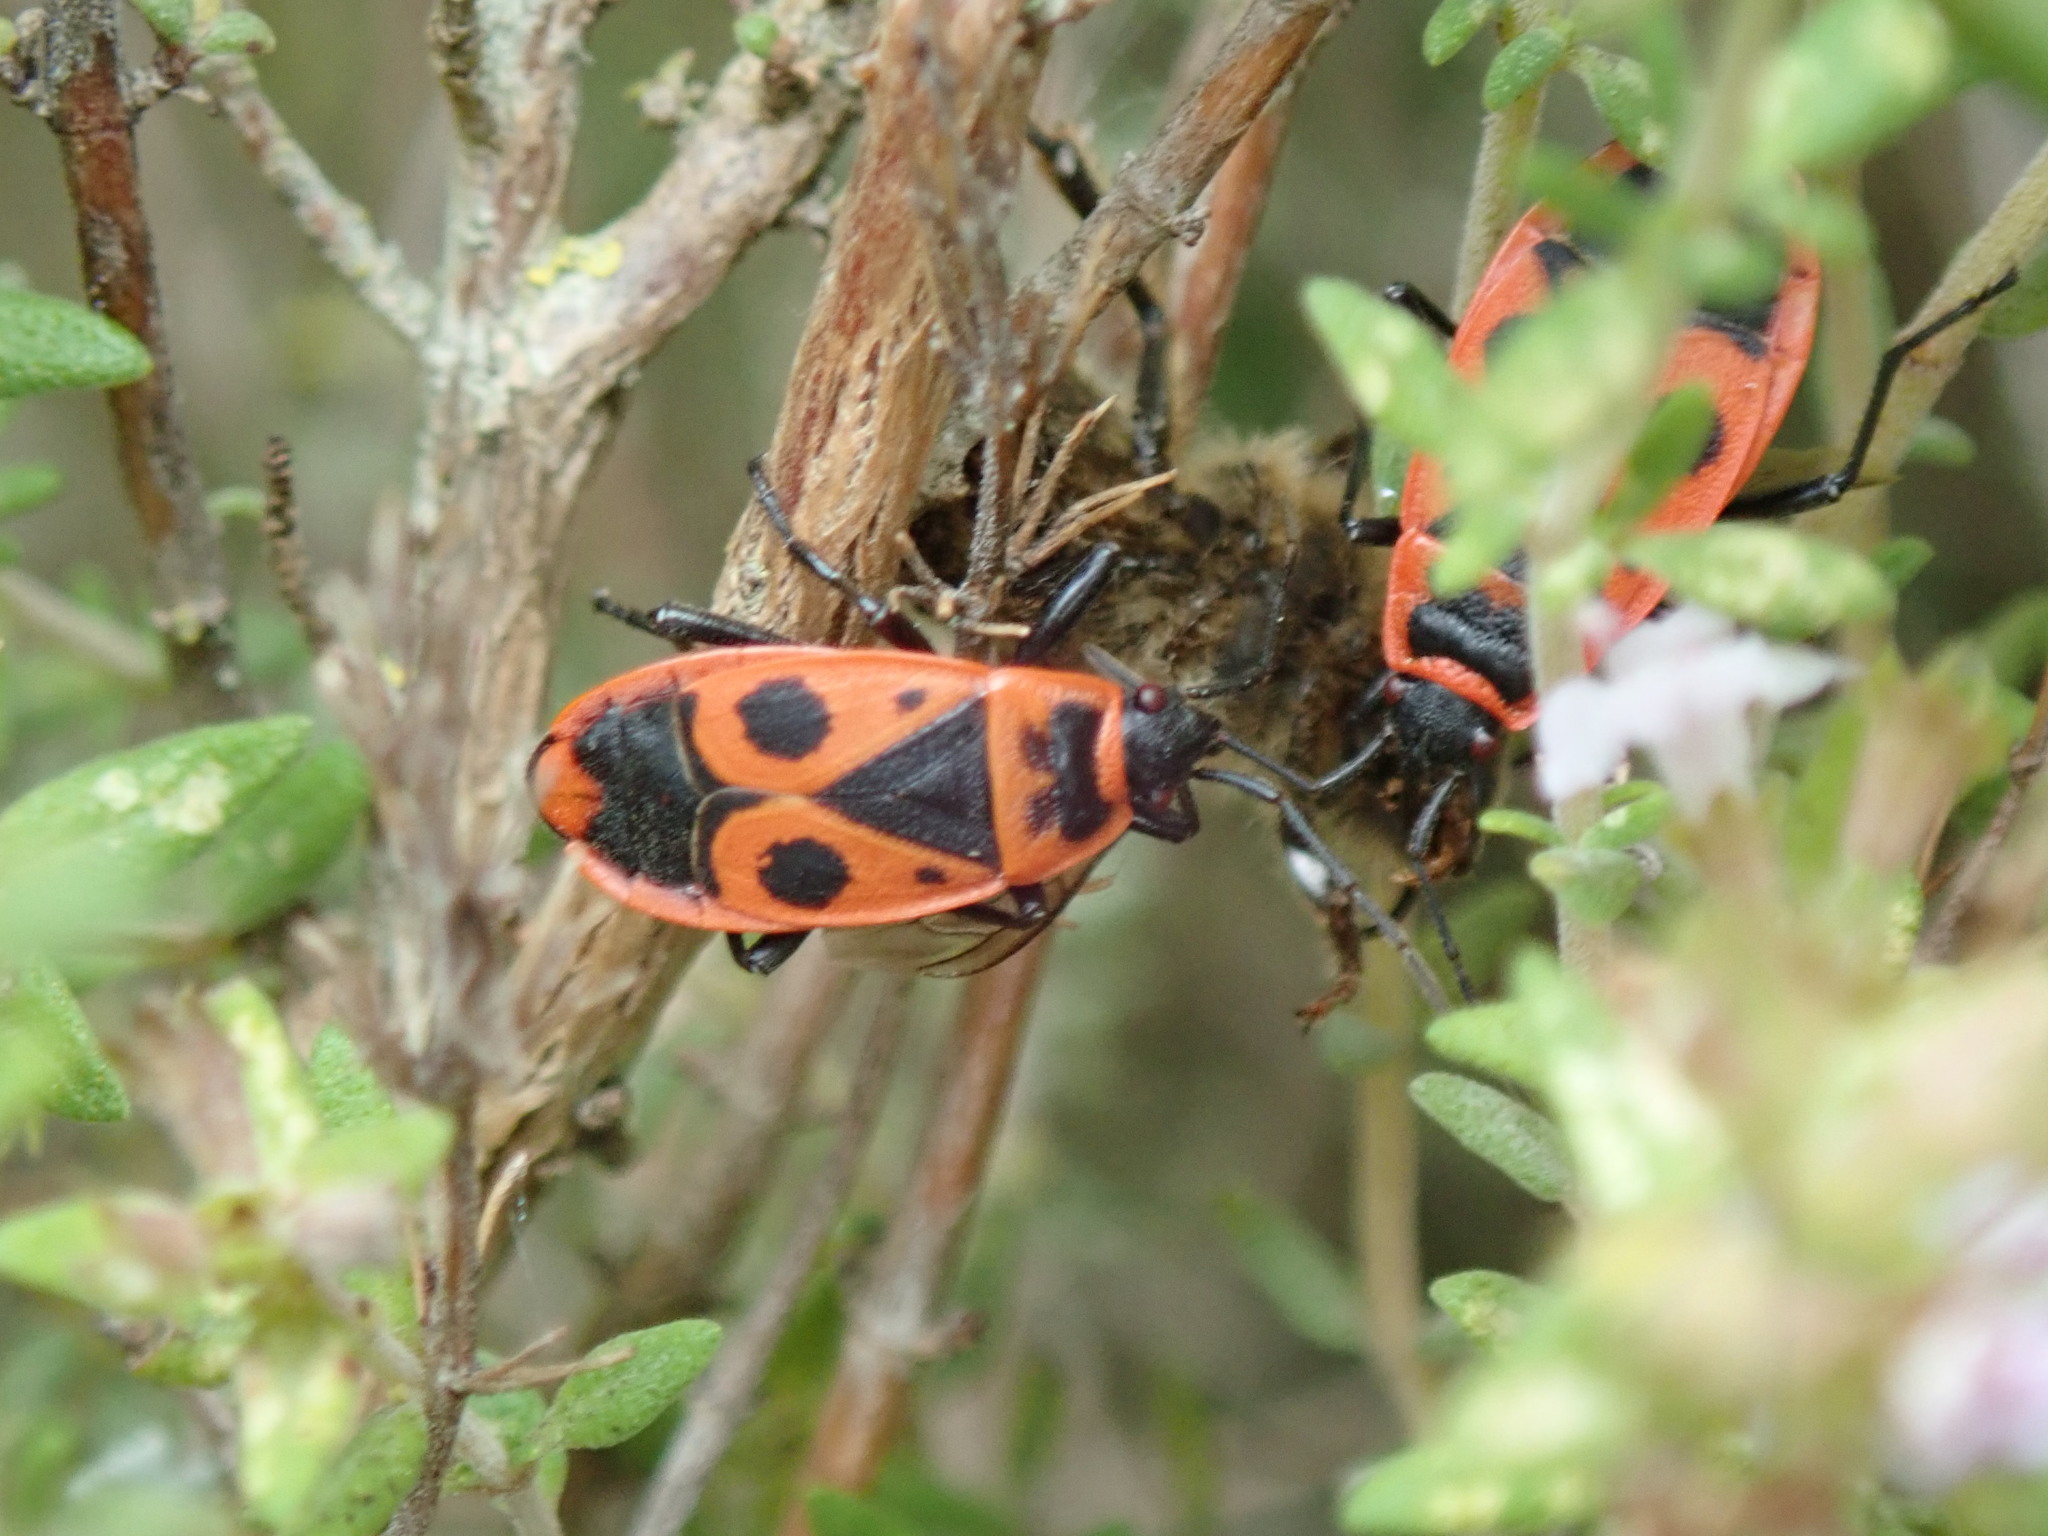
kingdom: Animalia
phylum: Arthropoda
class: Insecta
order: Hemiptera
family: Pyrrhocoridae
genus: Pyrrhocoris
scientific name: Pyrrhocoris apterus
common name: Firebug
